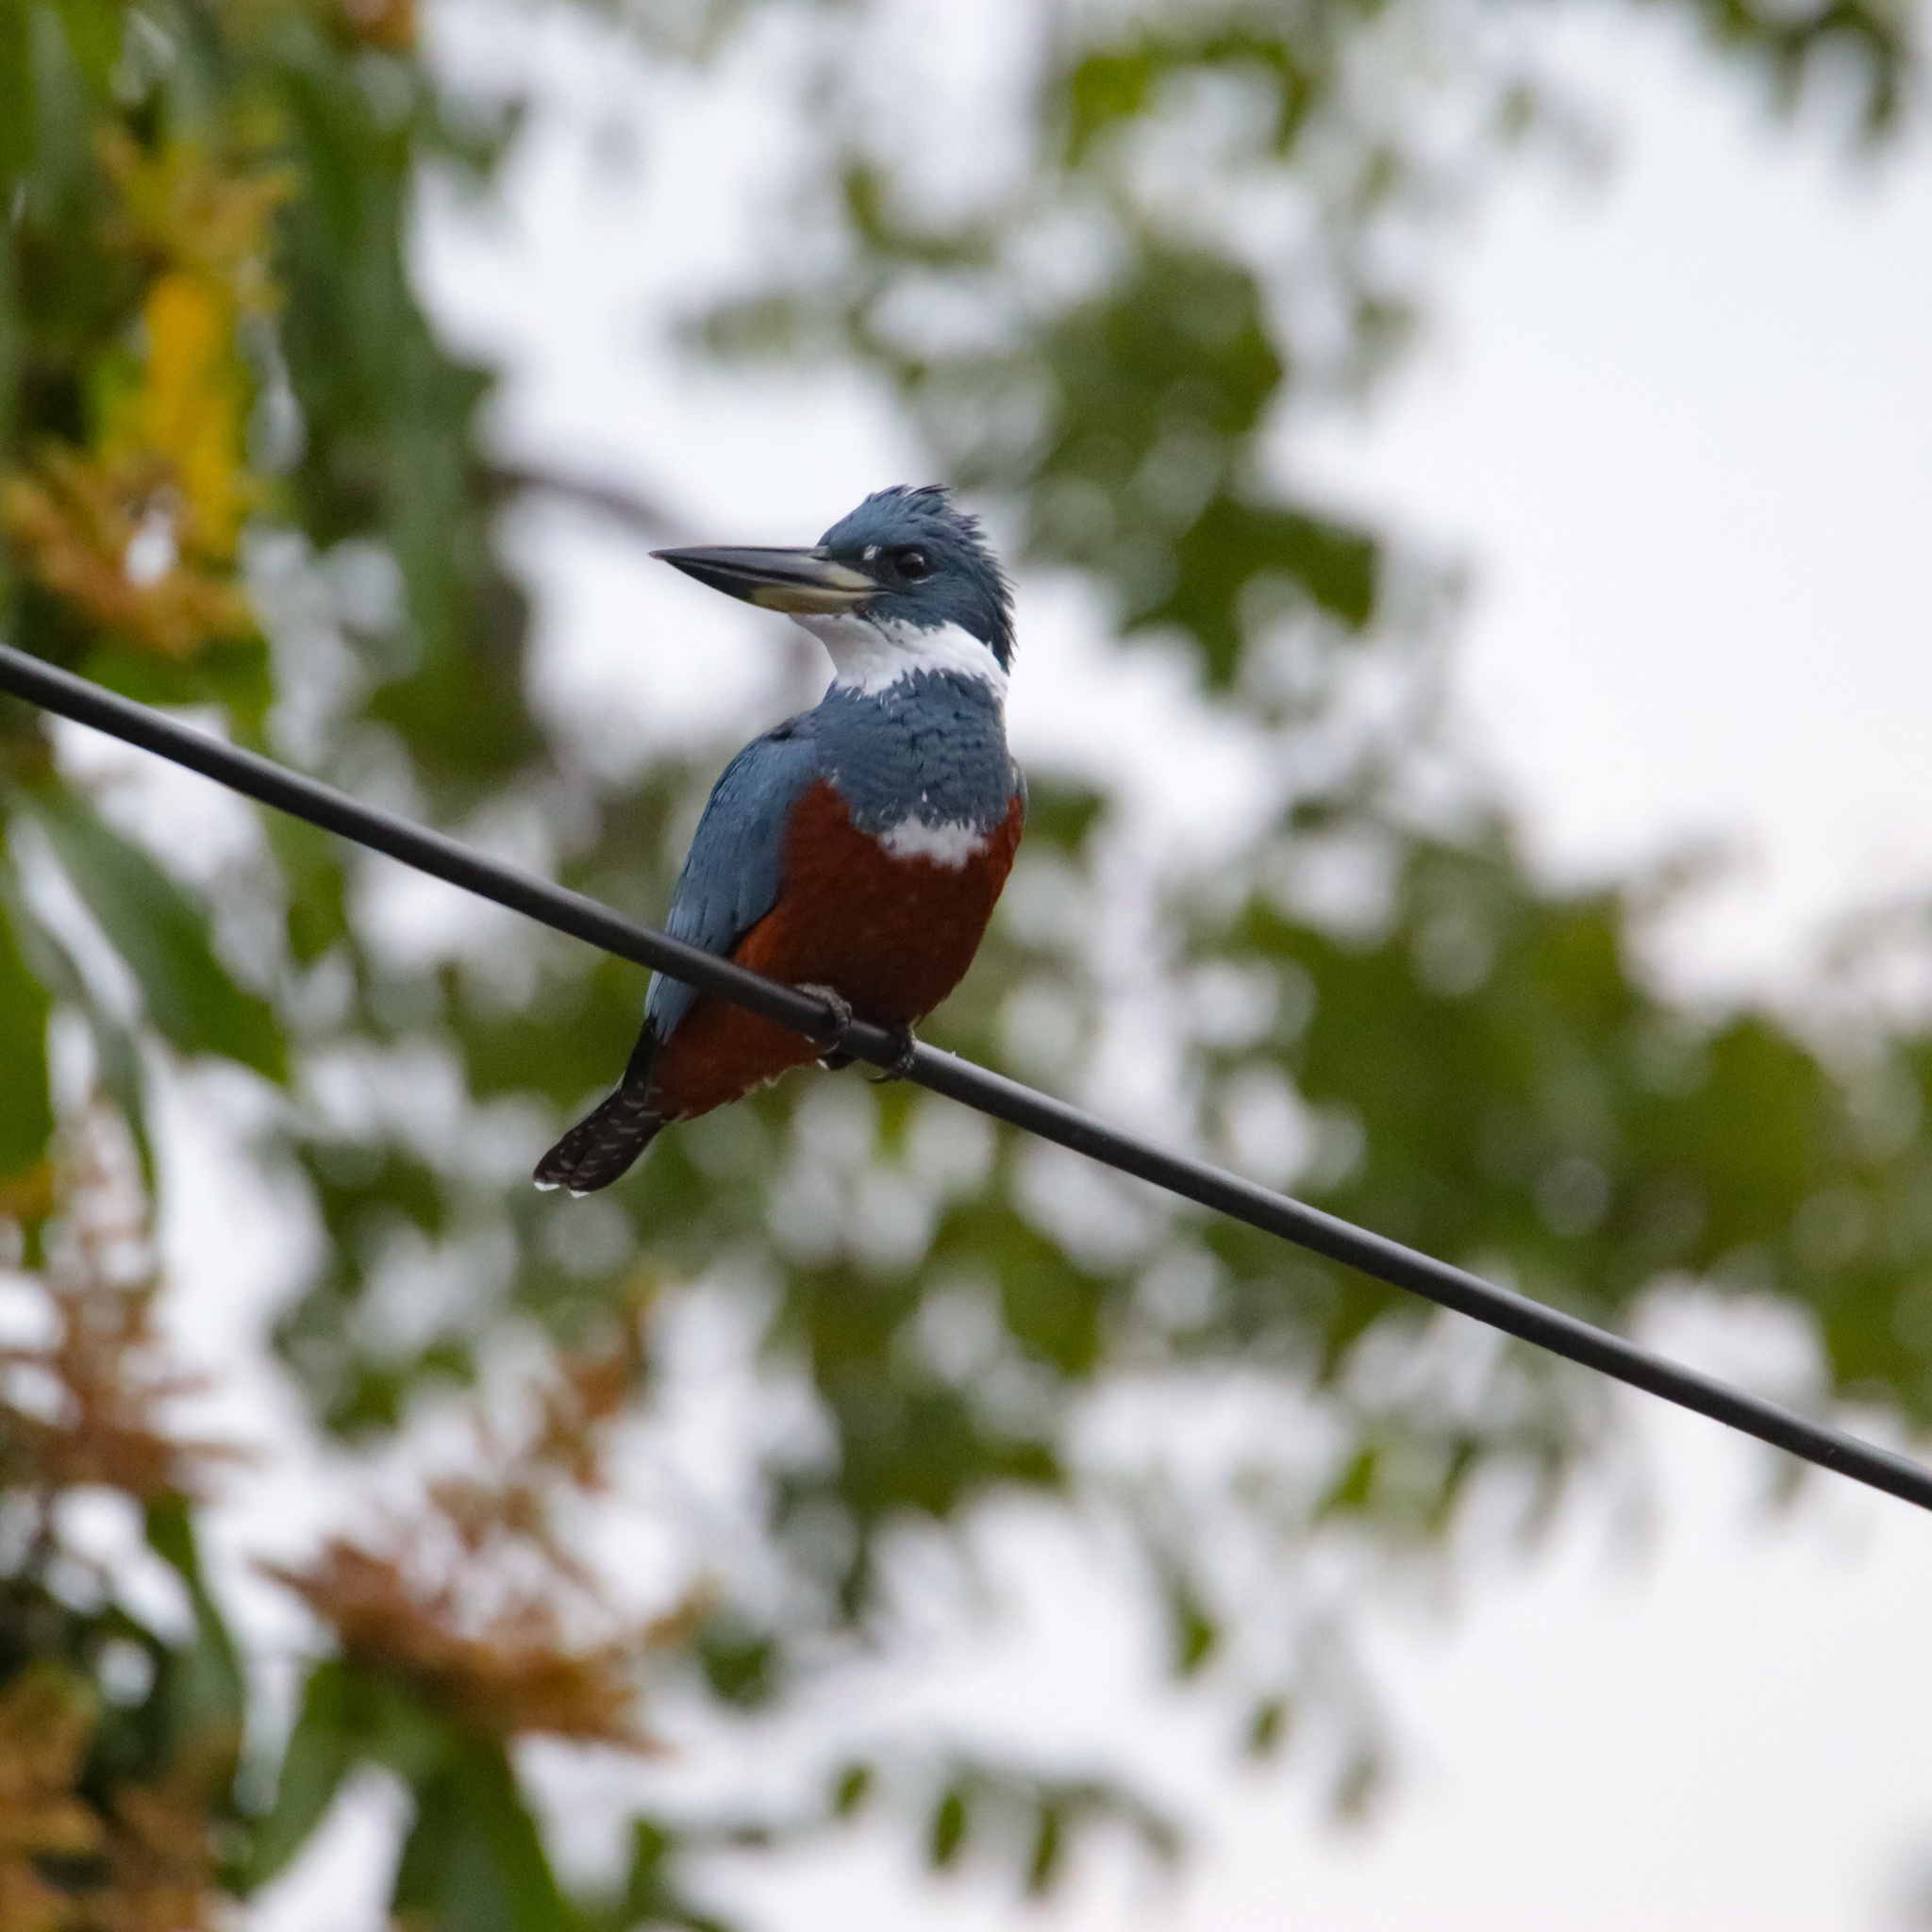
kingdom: Animalia
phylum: Chordata
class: Aves
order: Coraciiformes
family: Alcedinidae
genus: Megaceryle
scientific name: Megaceryle torquata
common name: Ringed kingfisher
